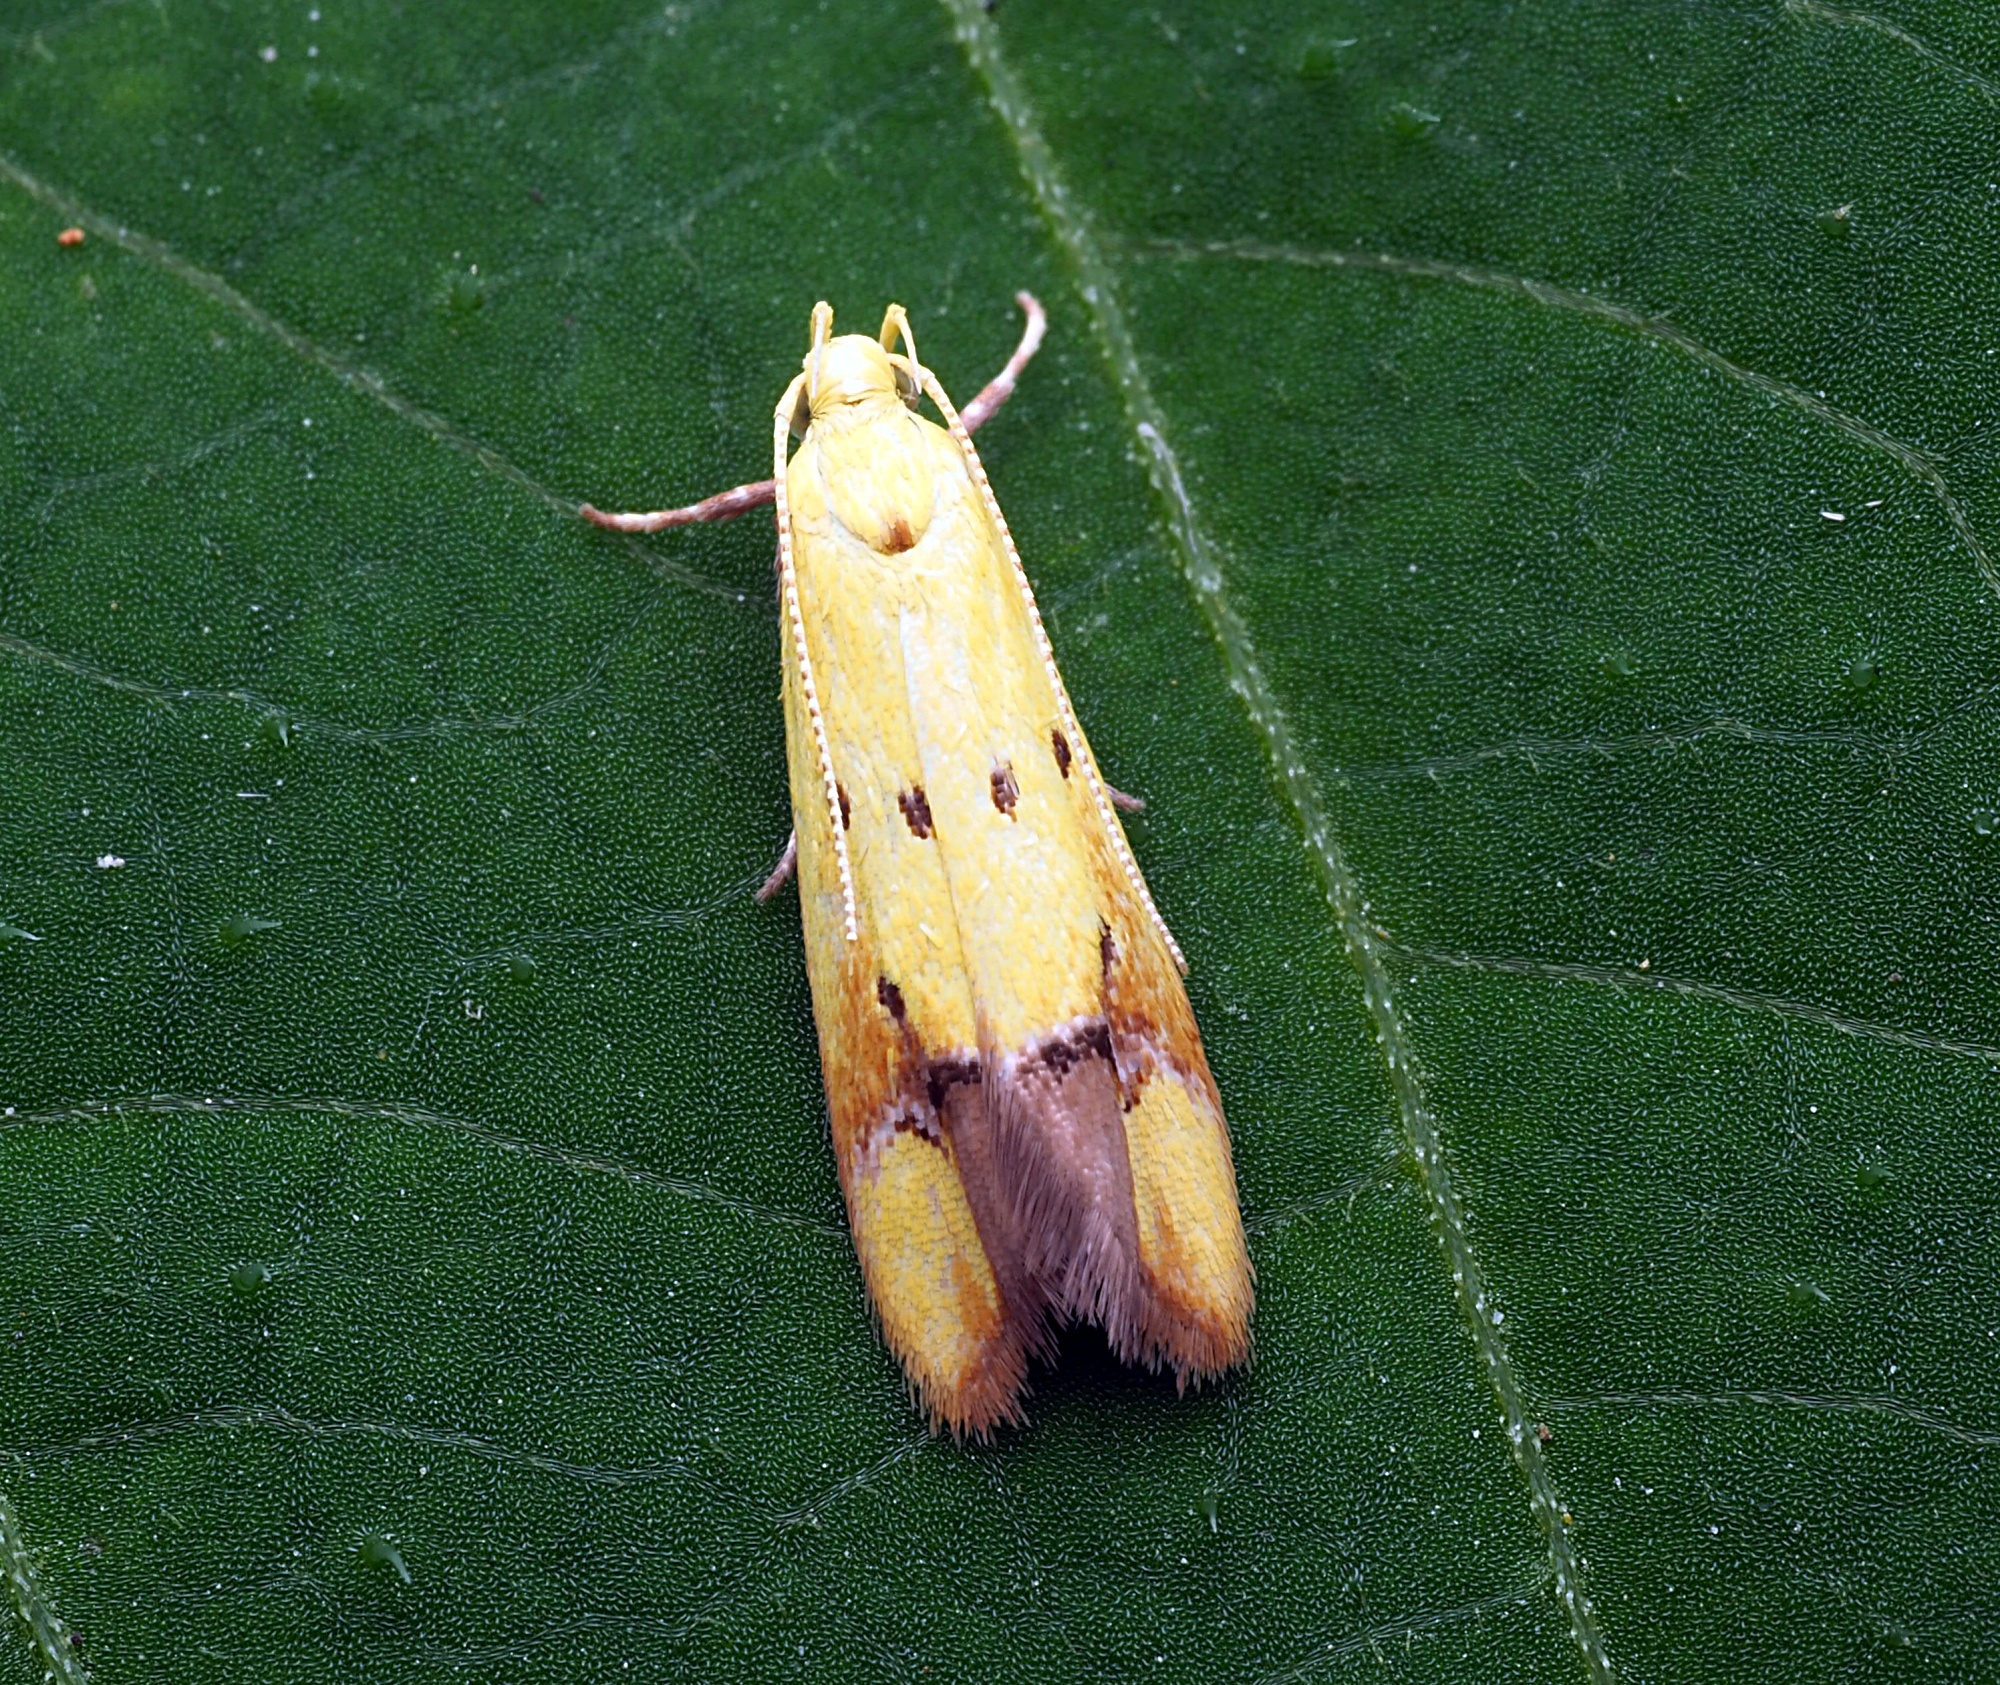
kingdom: Animalia
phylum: Arthropoda
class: Insecta
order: Lepidoptera
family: Oecophoridae
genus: Gymnobathra
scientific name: Gymnobathra flavidella
